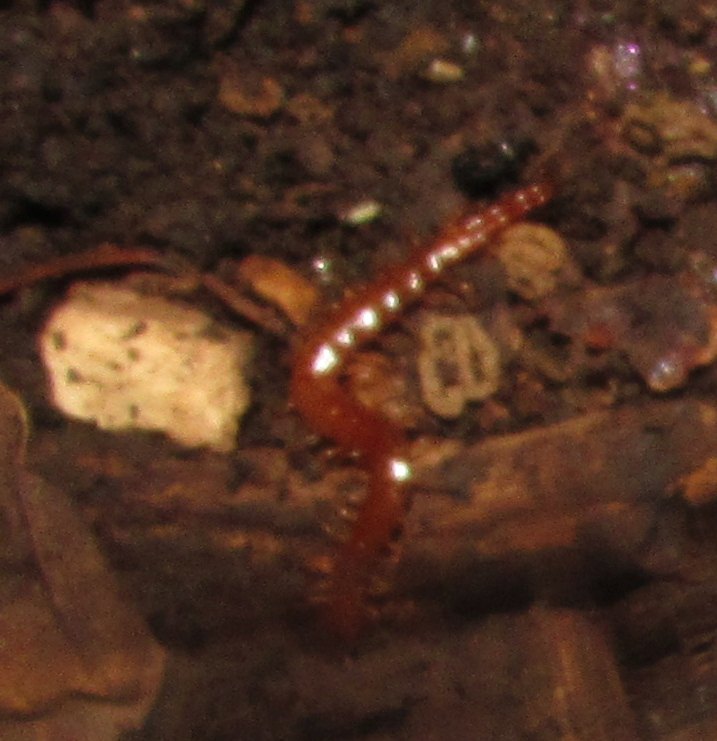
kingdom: Animalia
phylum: Arthropoda
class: Chilopoda
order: Scolopendromorpha
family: Cryptopidae
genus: Cryptops
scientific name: Cryptops
